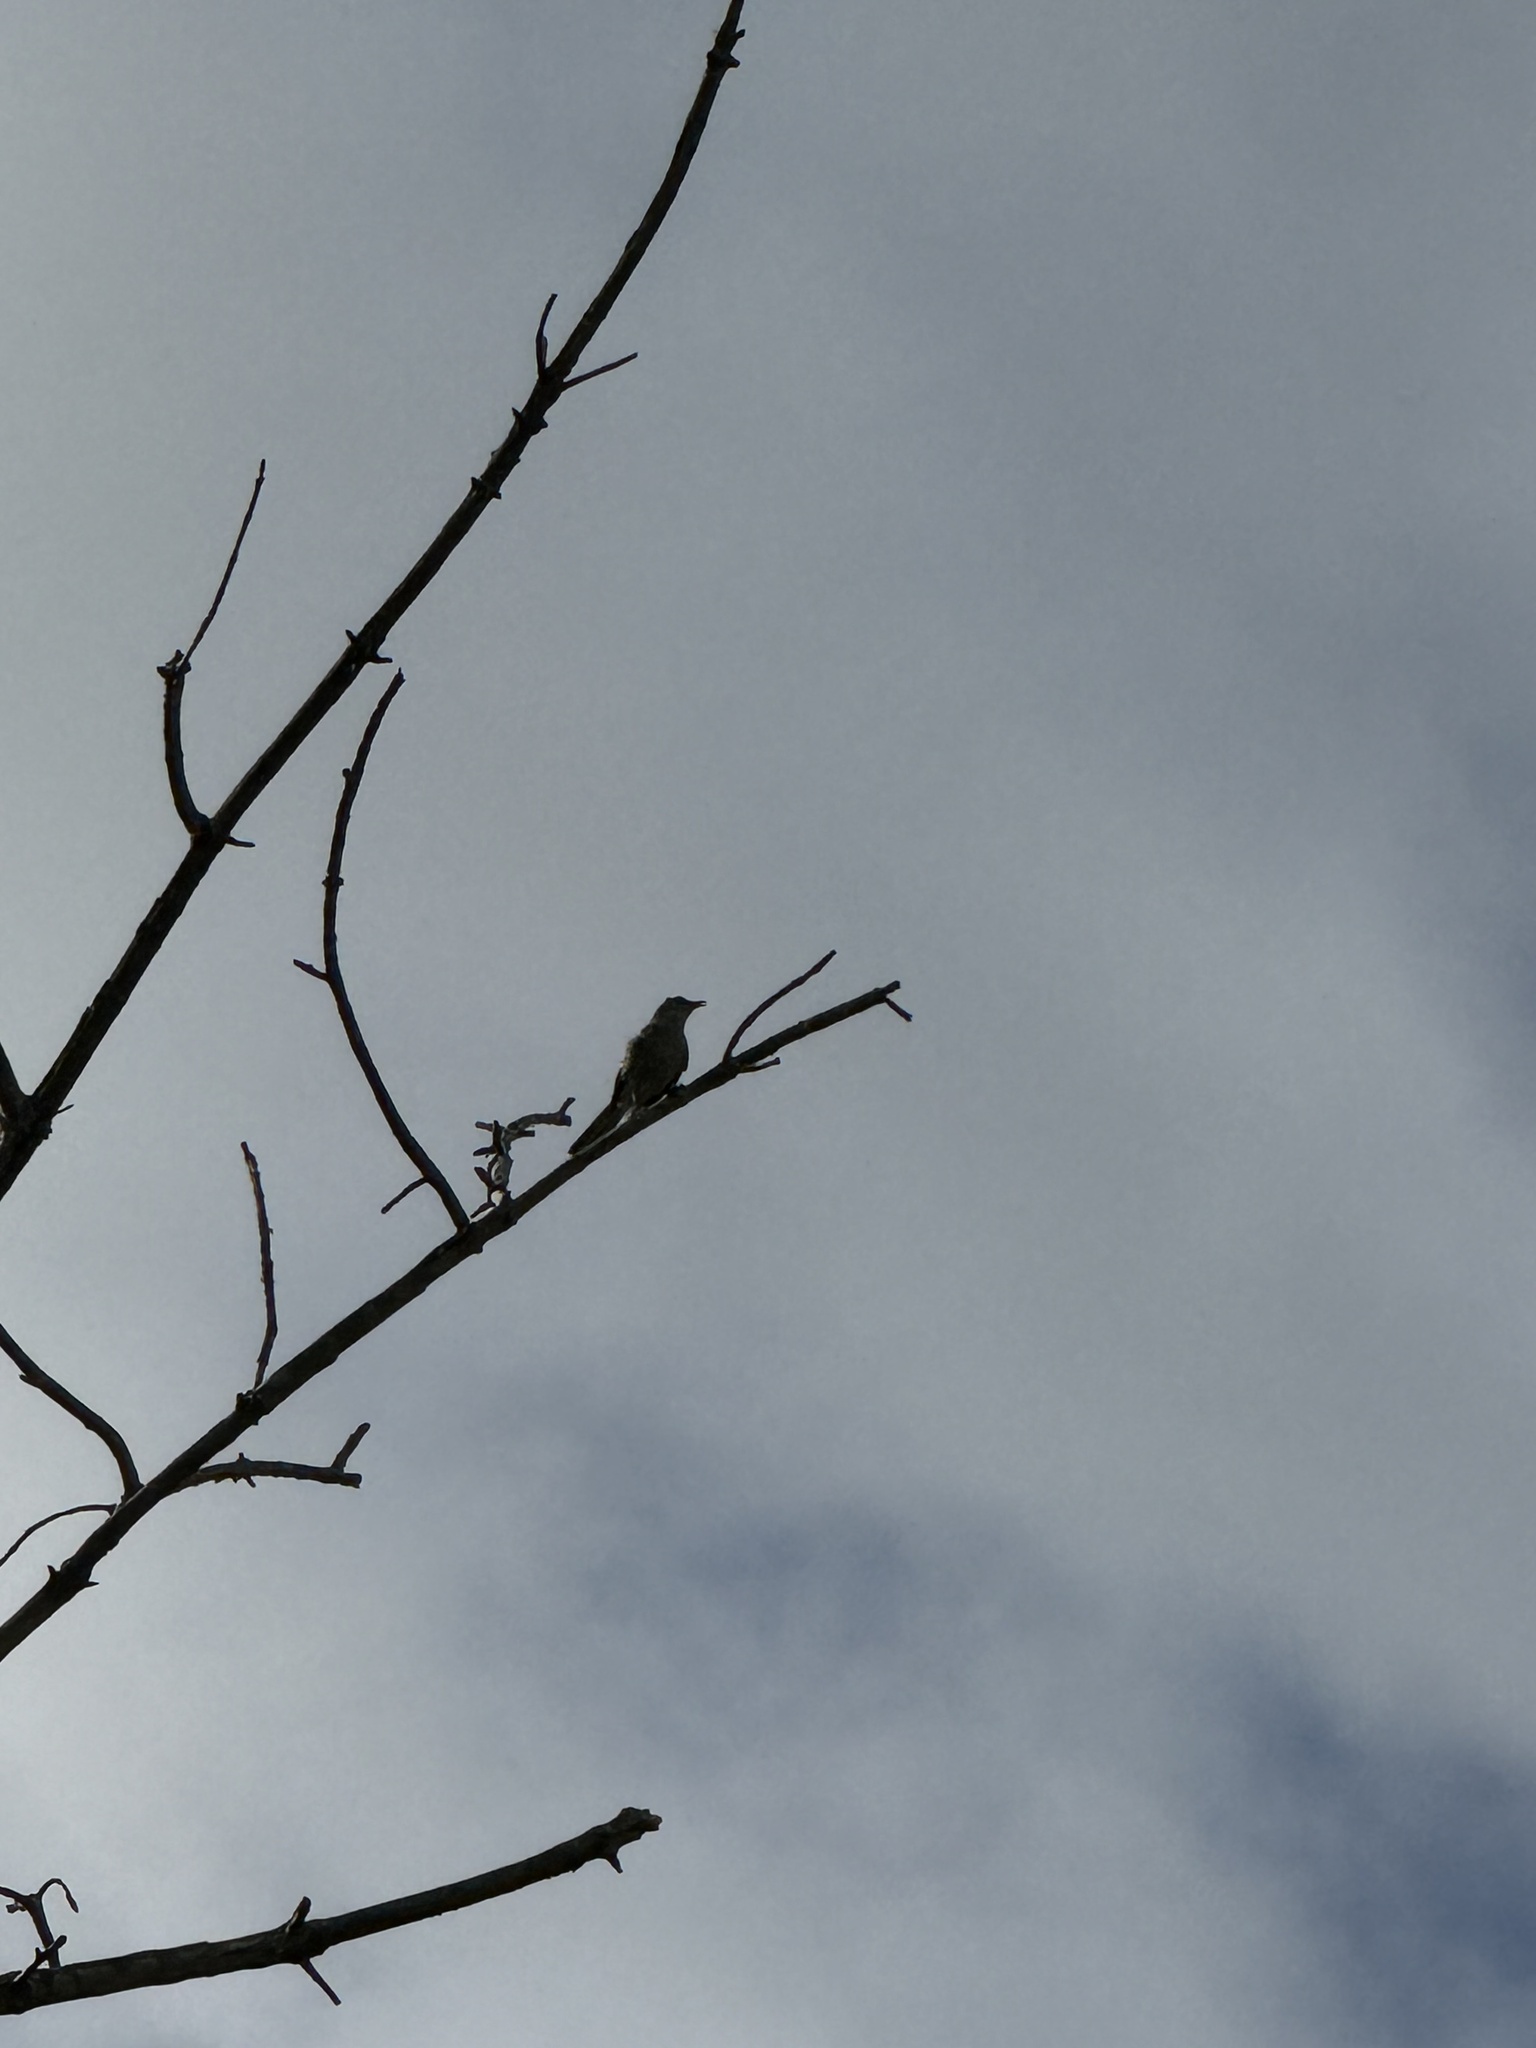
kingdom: Animalia
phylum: Chordata
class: Aves
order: Passeriformes
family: Mimidae
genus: Mimus
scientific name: Mimus polyglottos
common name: Northern mockingbird
